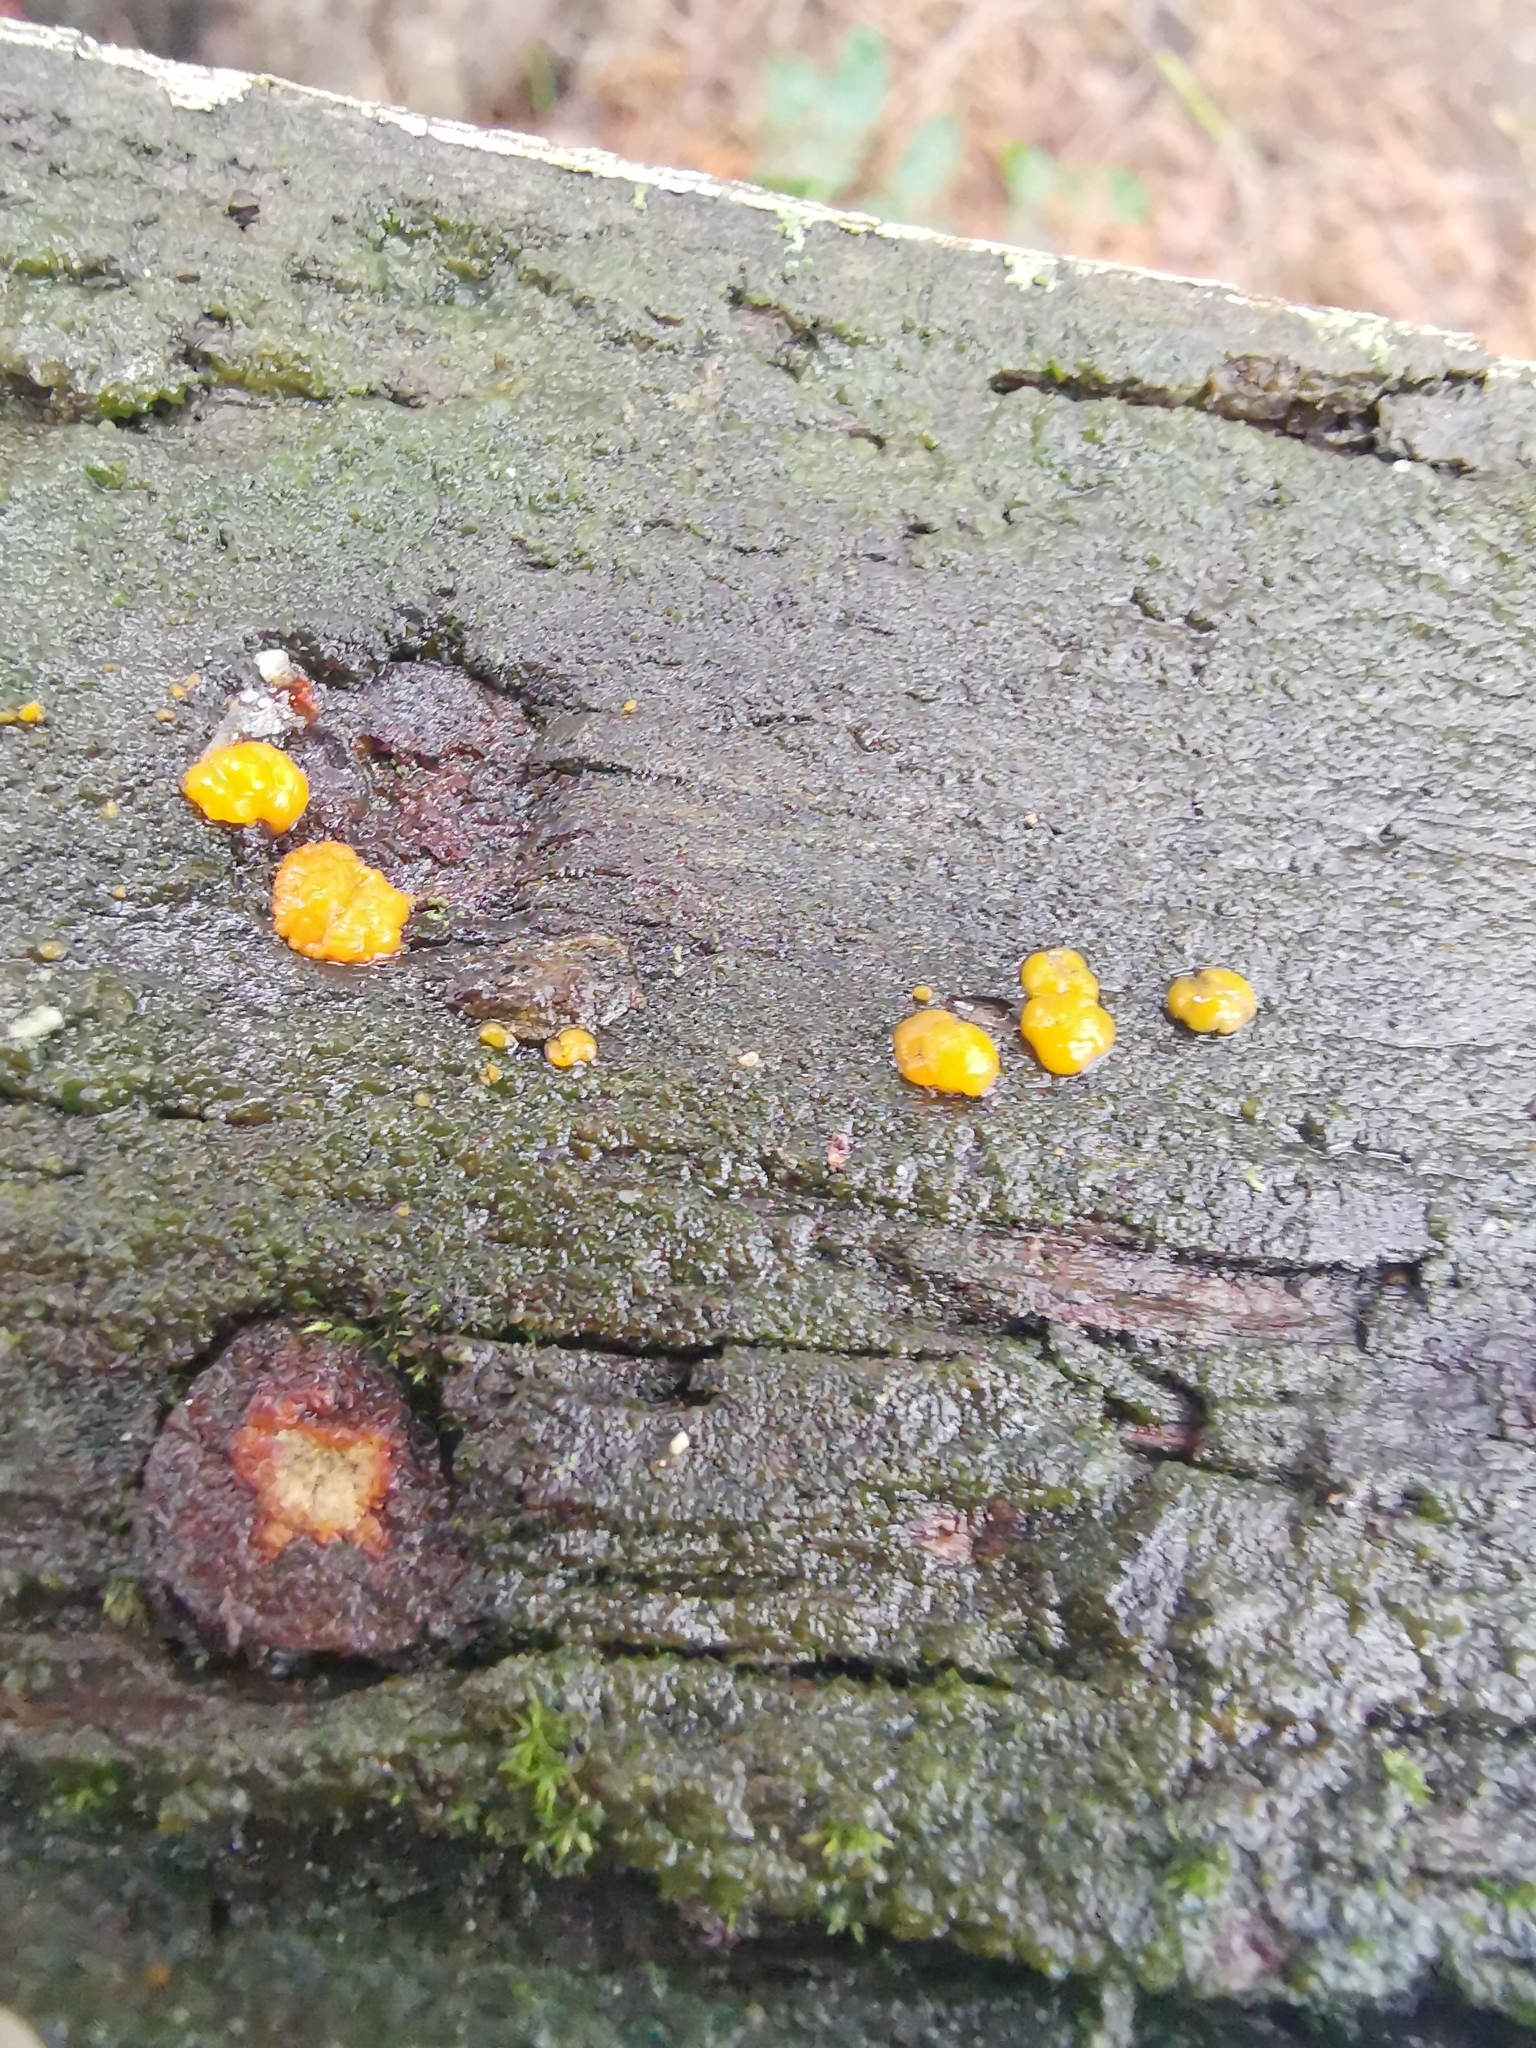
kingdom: Fungi
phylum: Basidiomycota
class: Dacrymycetes
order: Dacrymycetales
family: Dacrymycetaceae
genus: Dacrymyces
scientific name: Dacrymyces stillatus
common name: Common jelly spot
